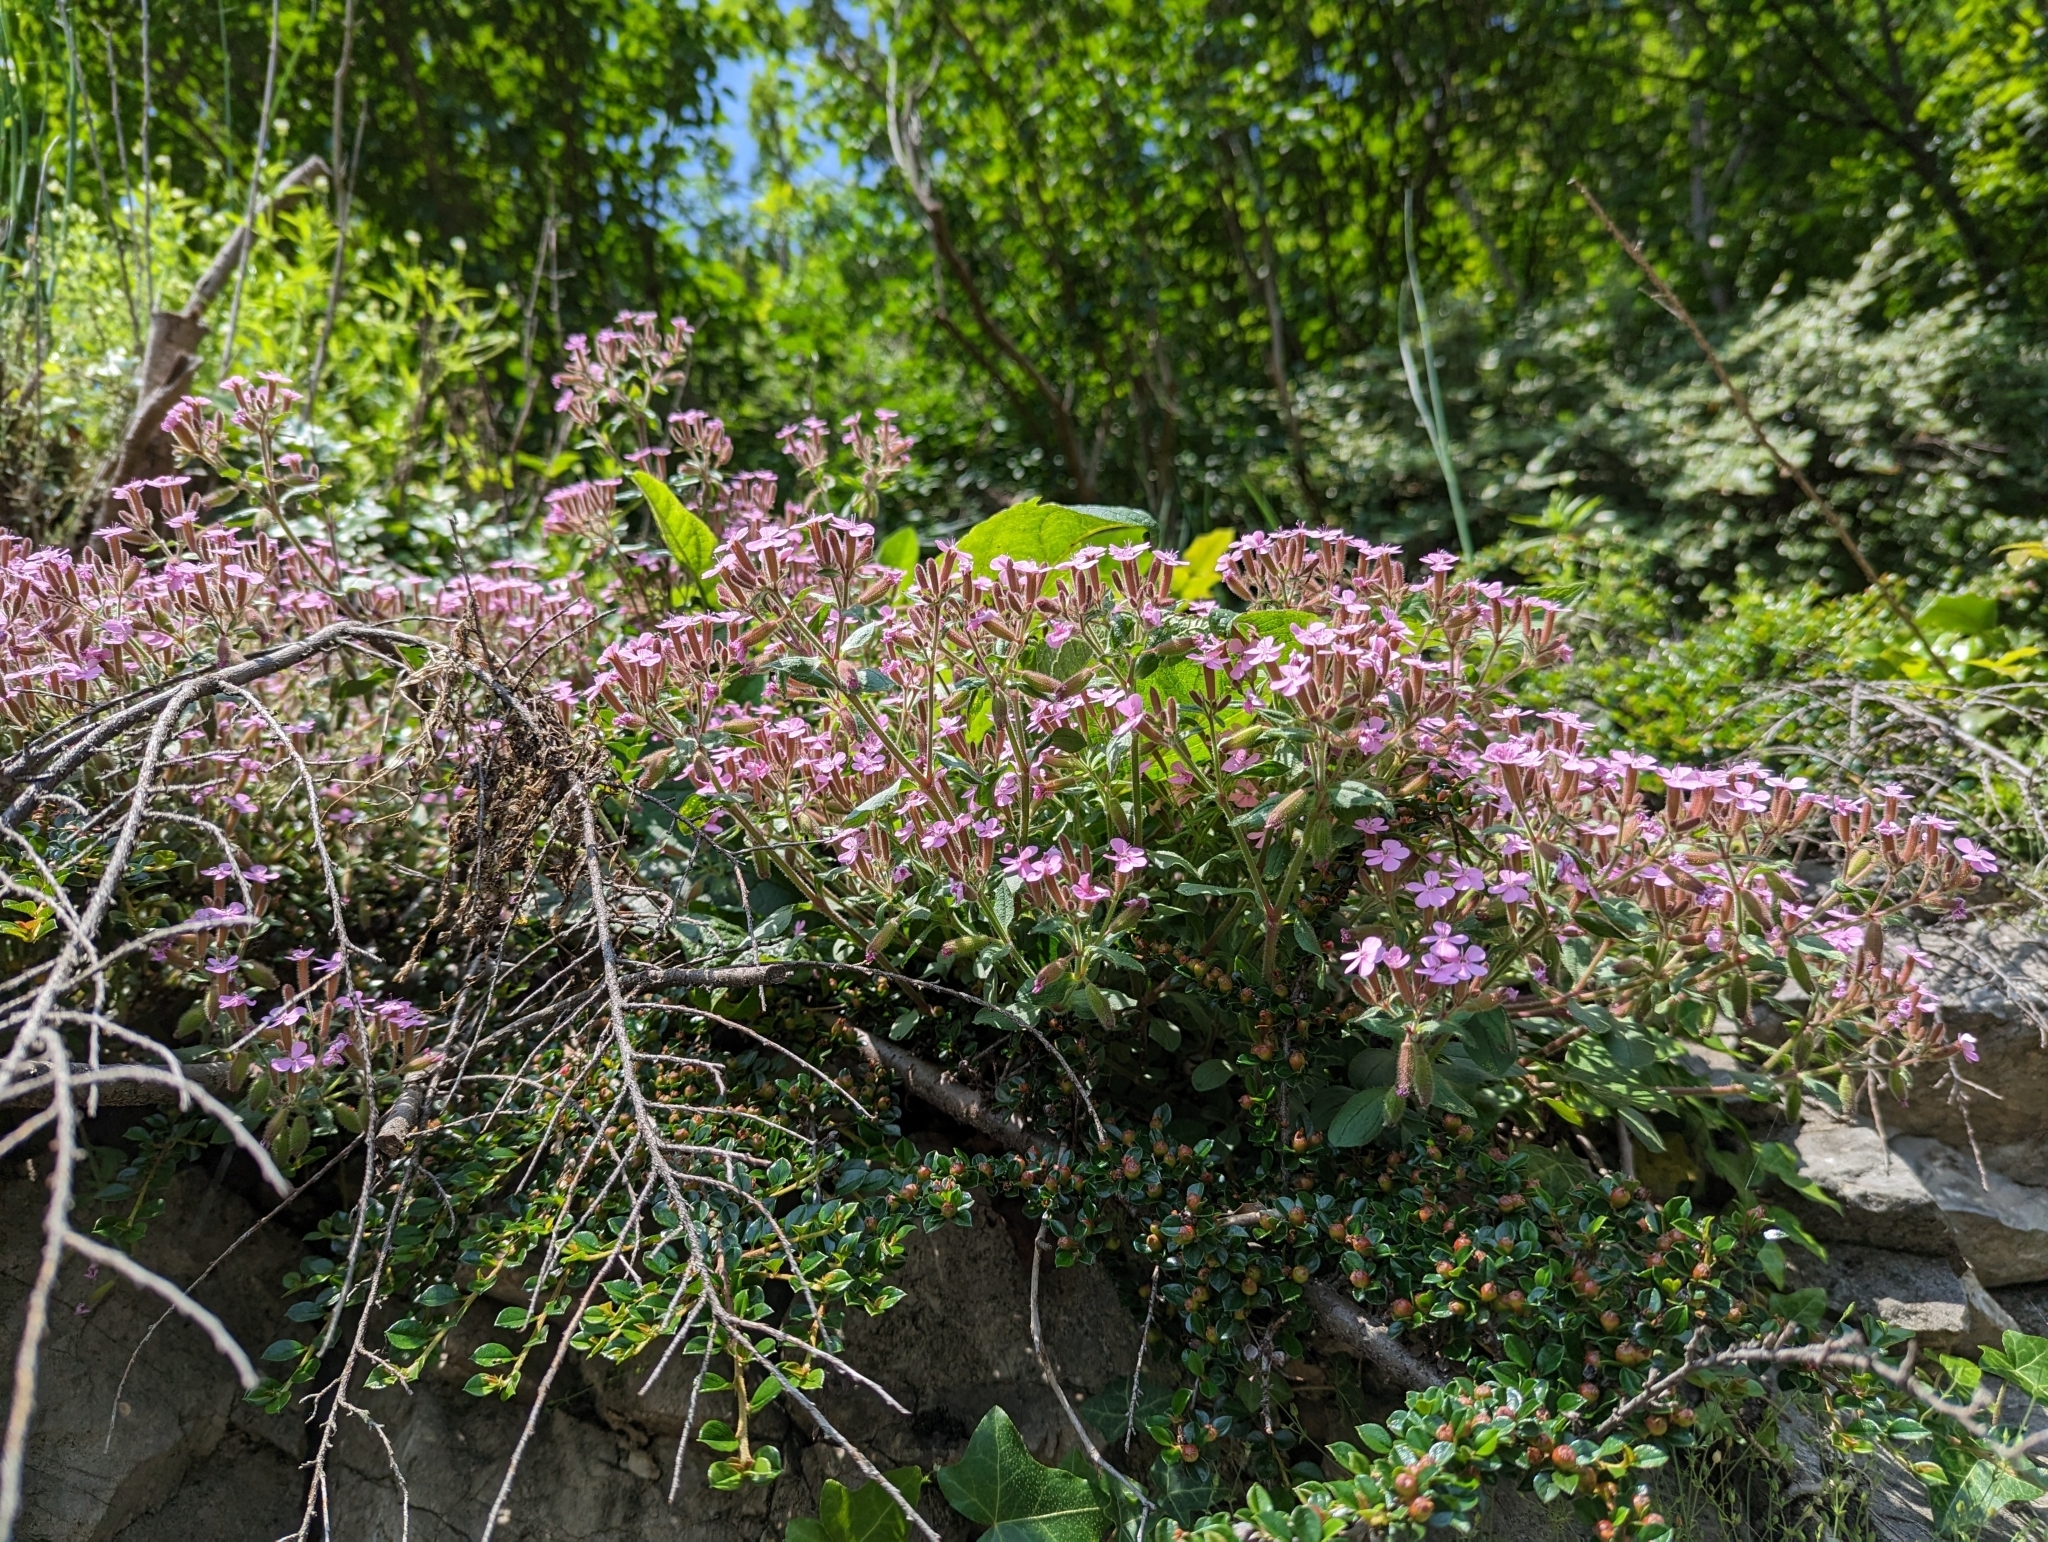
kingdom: Plantae
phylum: Tracheophyta
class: Magnoliopsida
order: Caryophyllales
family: Caryophyllaceae
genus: Saponaria
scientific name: Saponaria ocymoides
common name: Rock soapwort
